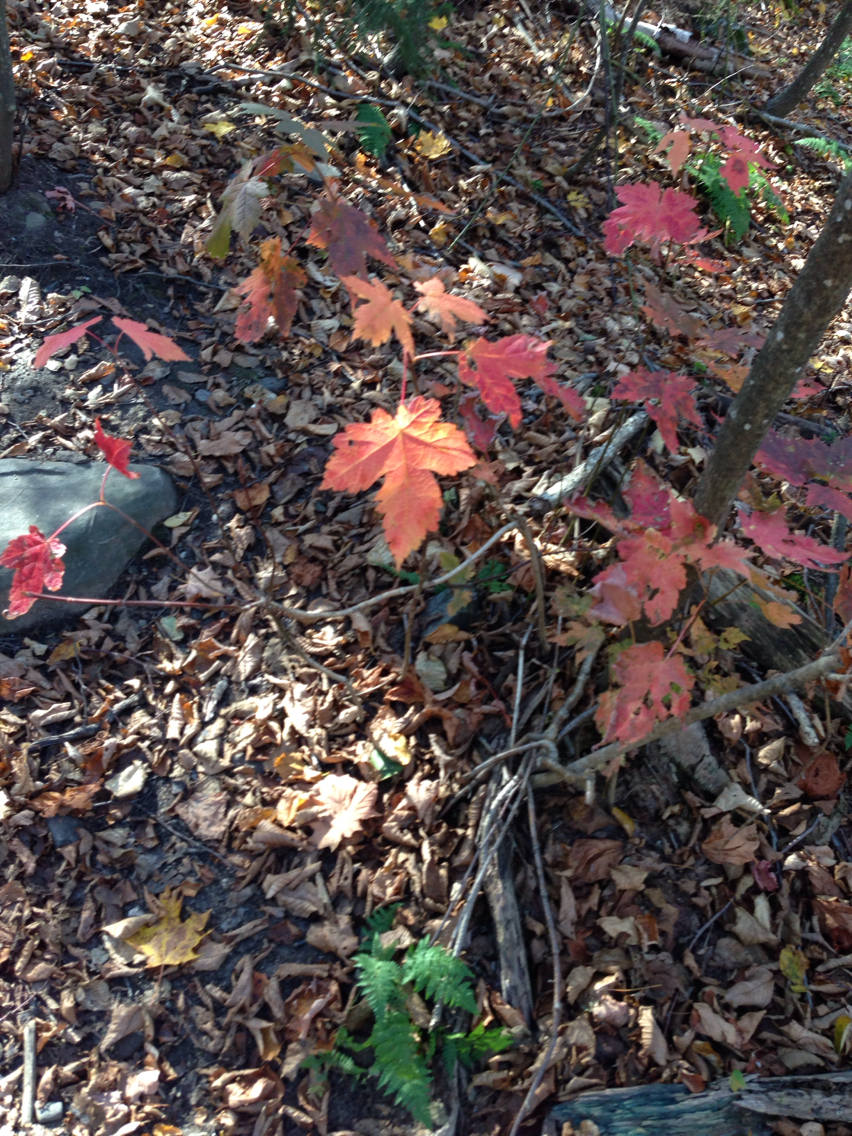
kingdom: Plantae
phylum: Tracheophyta
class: Magnoliopsida
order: Sapindales
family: Sapindaceae
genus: Acer
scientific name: Acer spicatum
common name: Mountain maple
